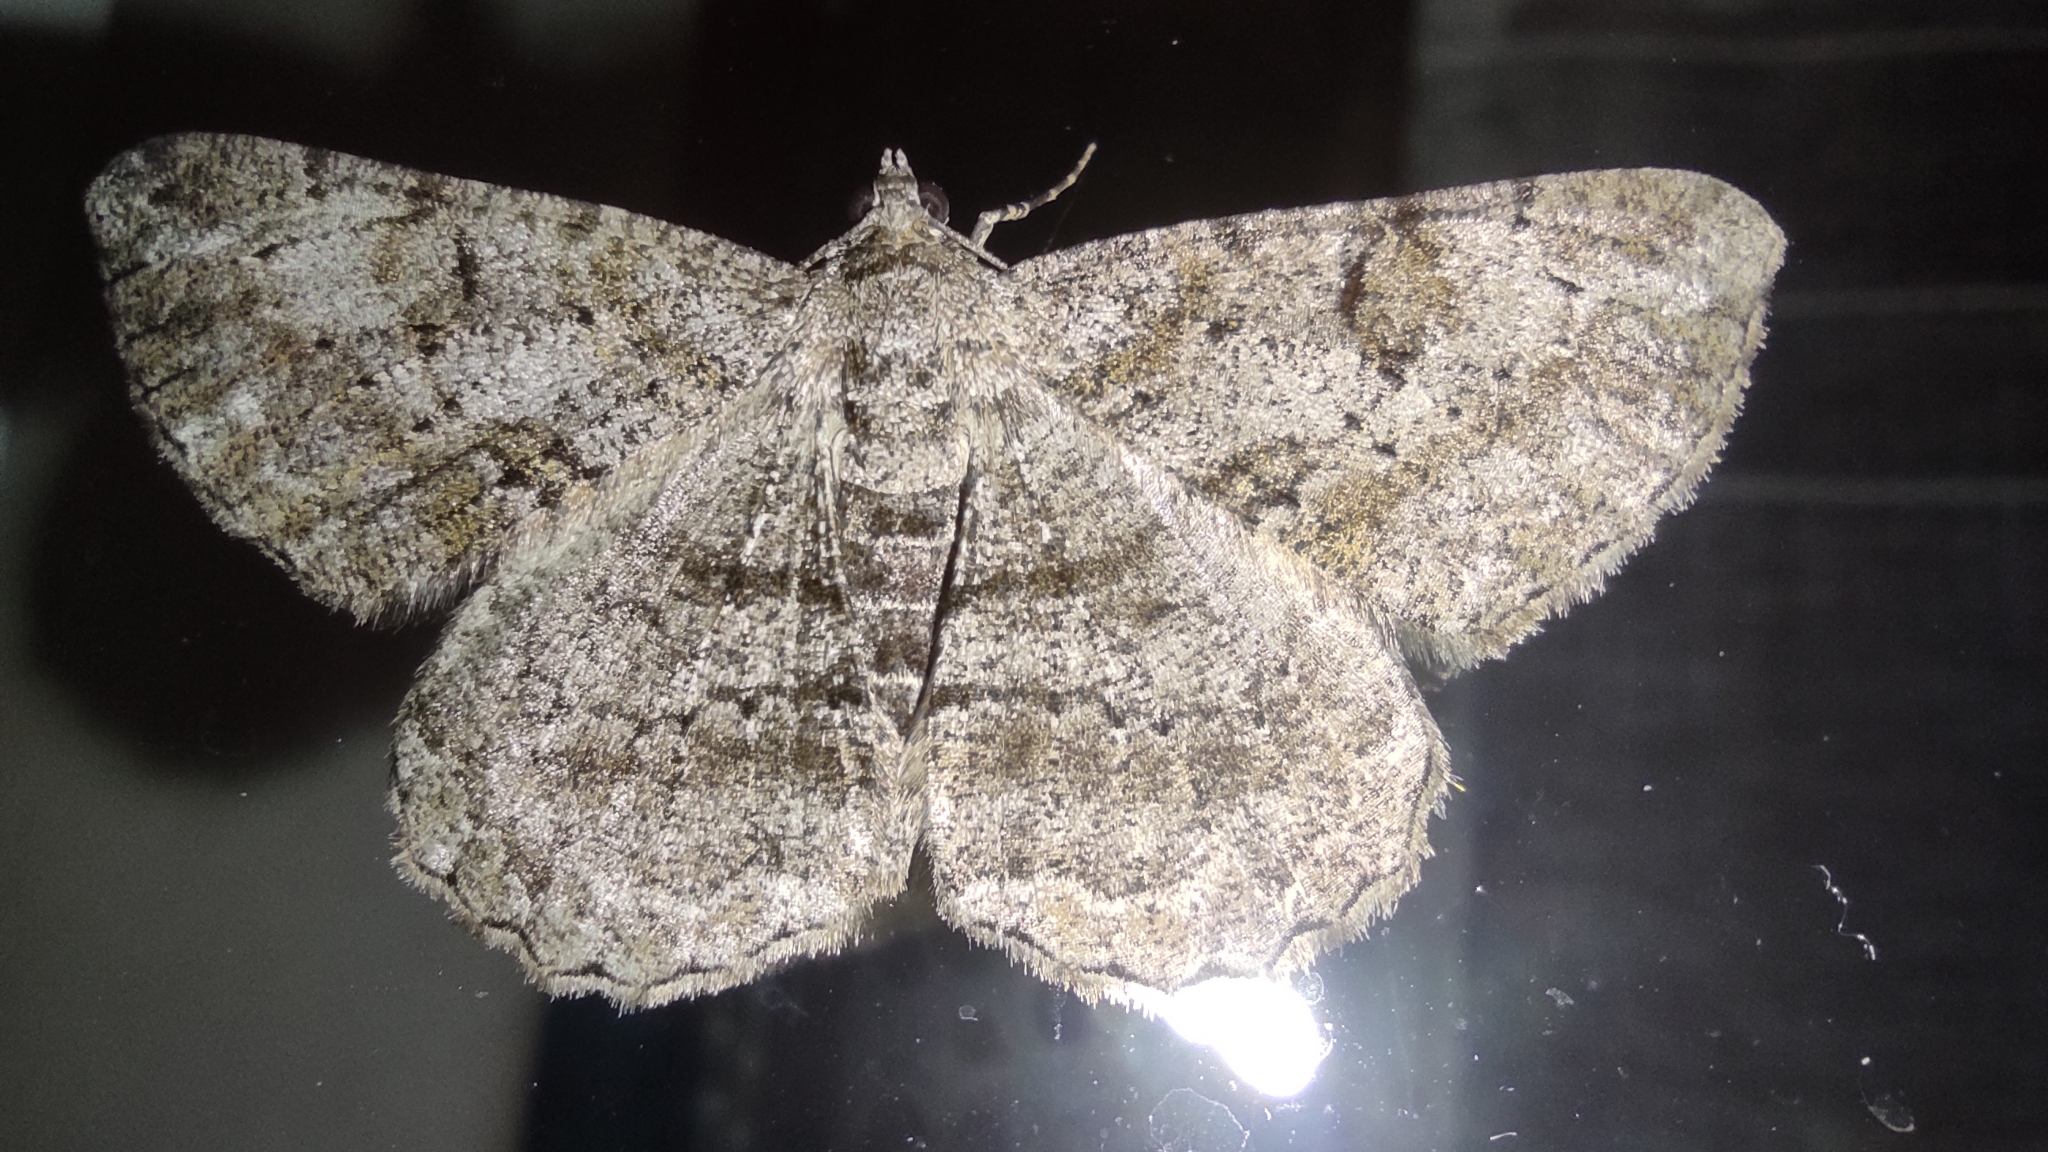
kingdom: Animalia
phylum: Arthropoda
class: Insecta
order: Lepidoptera
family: Geometridae
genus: Peribatodes
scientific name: Peribatodes rhomboidaria
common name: Willow beauty
